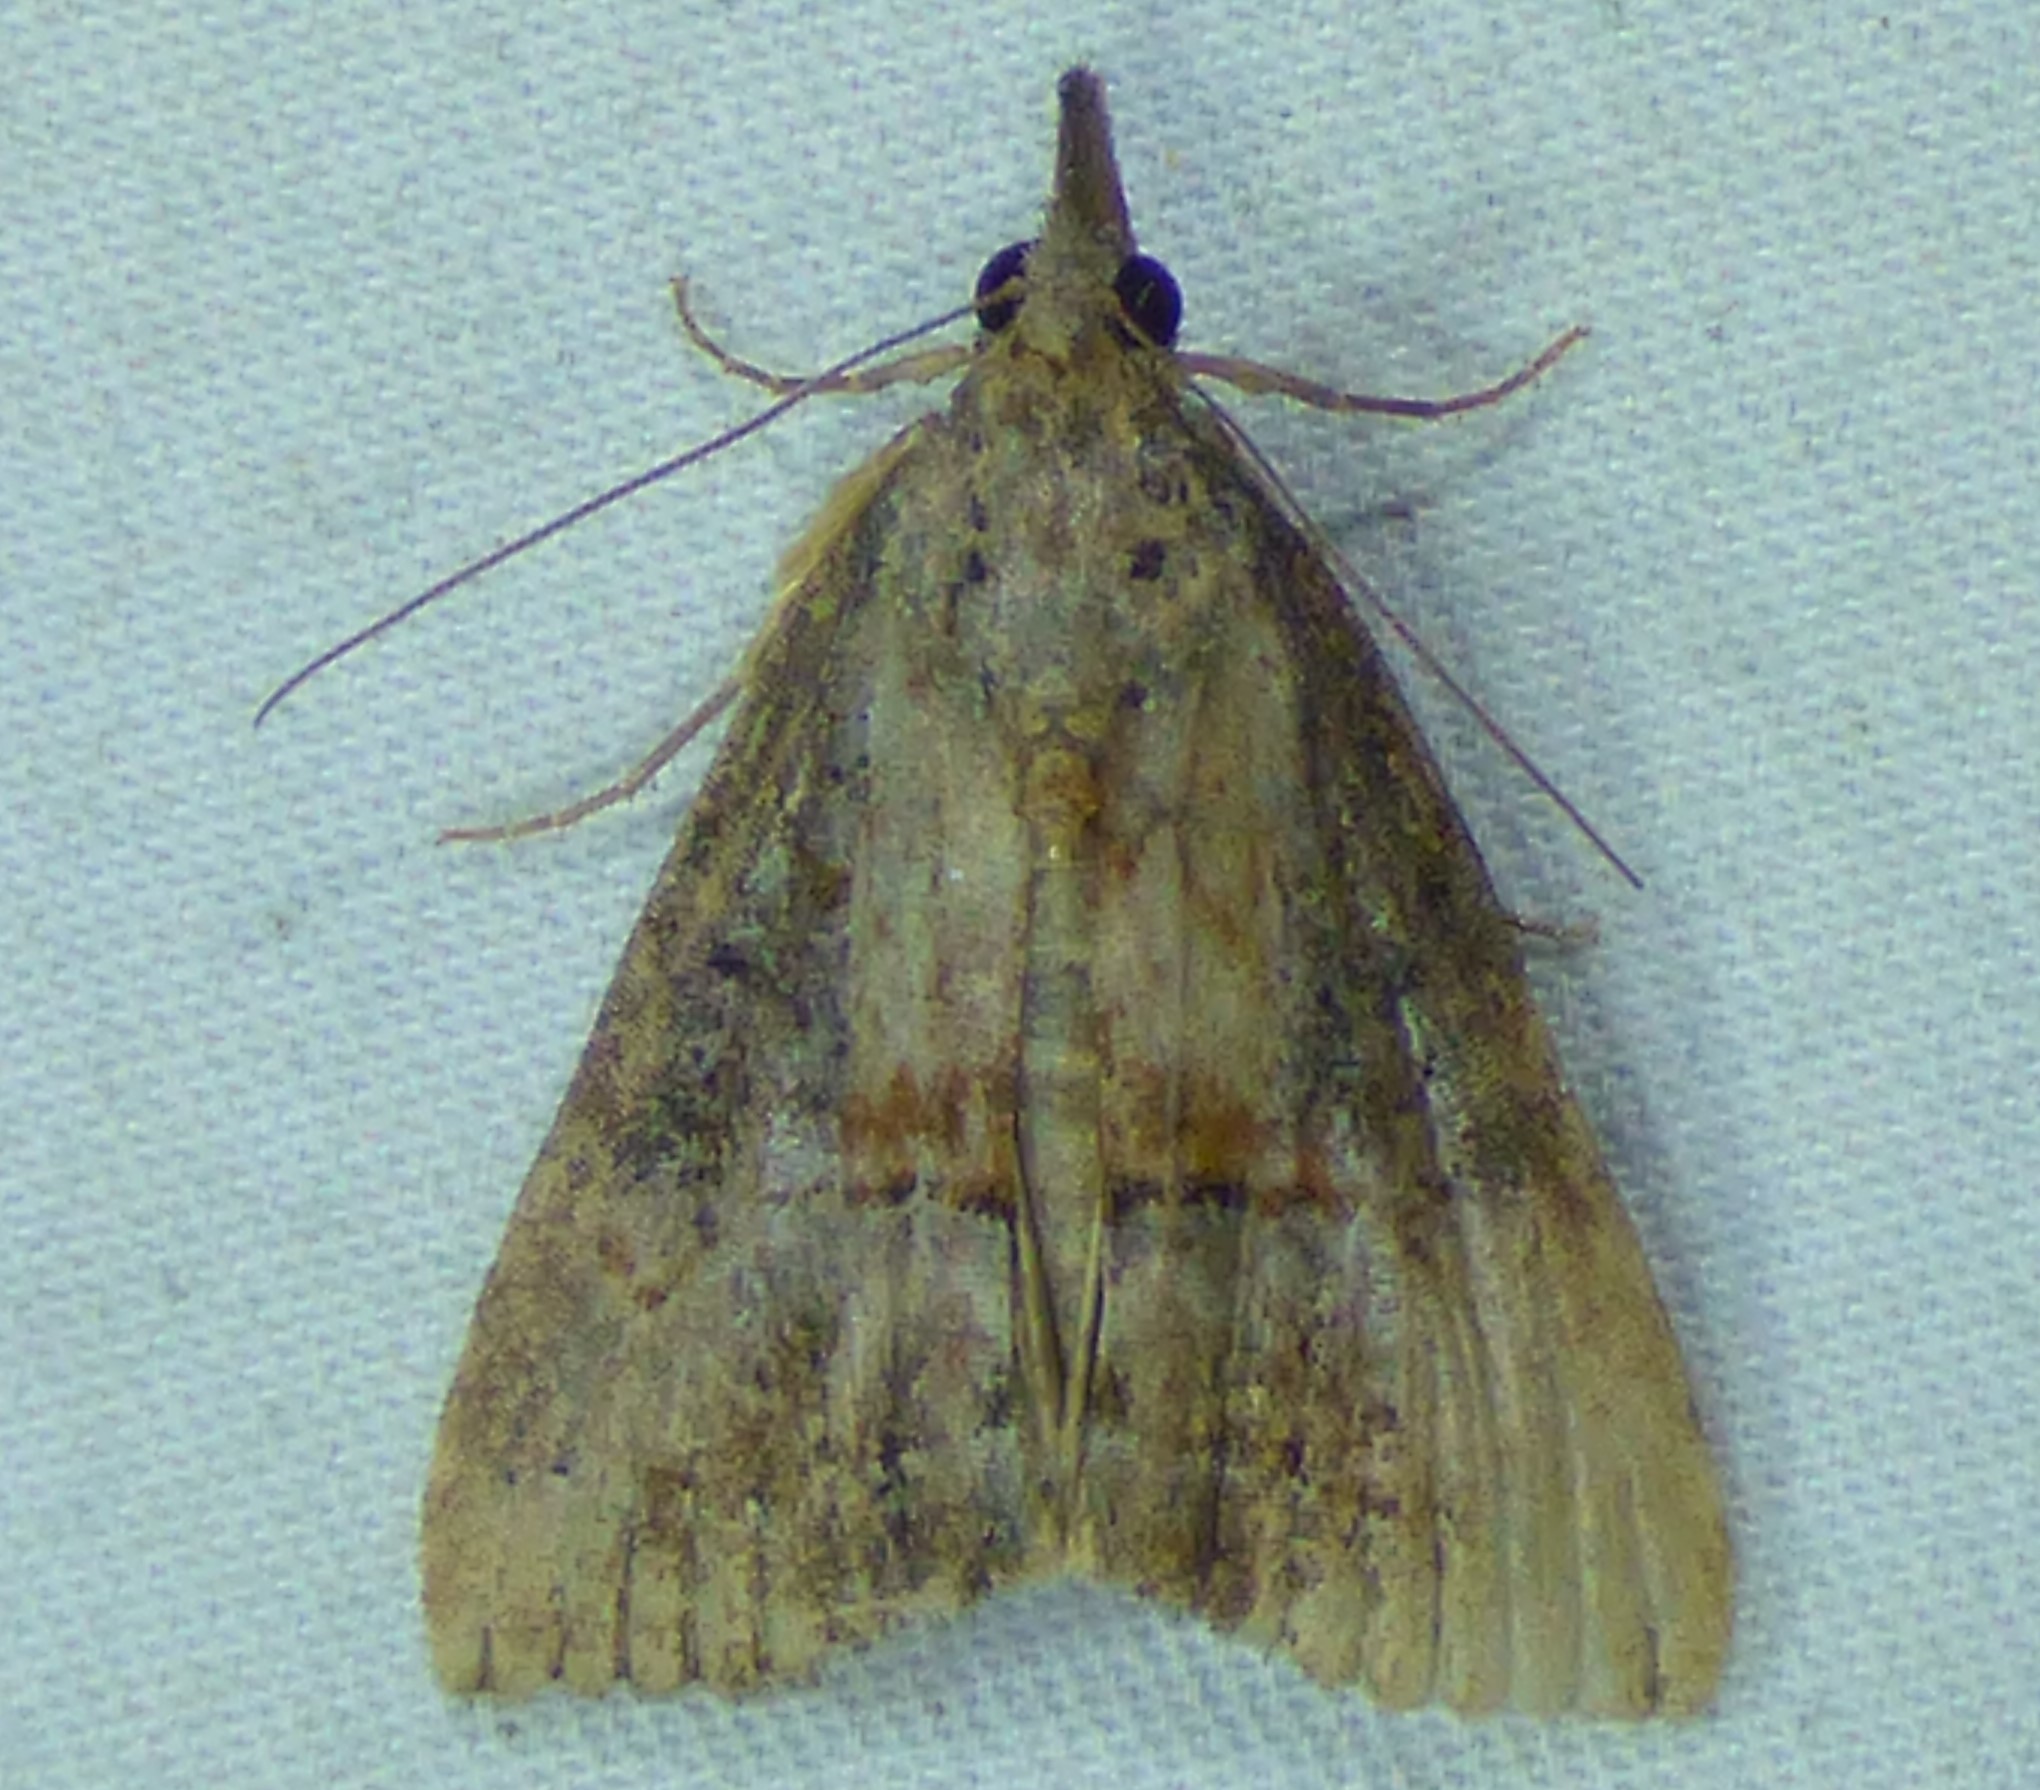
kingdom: Animalia
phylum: Arthropoda
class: Insecta
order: Lepidoptera
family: Erebidae
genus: Hypena
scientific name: Hypena scabra
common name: Green cloverworm
